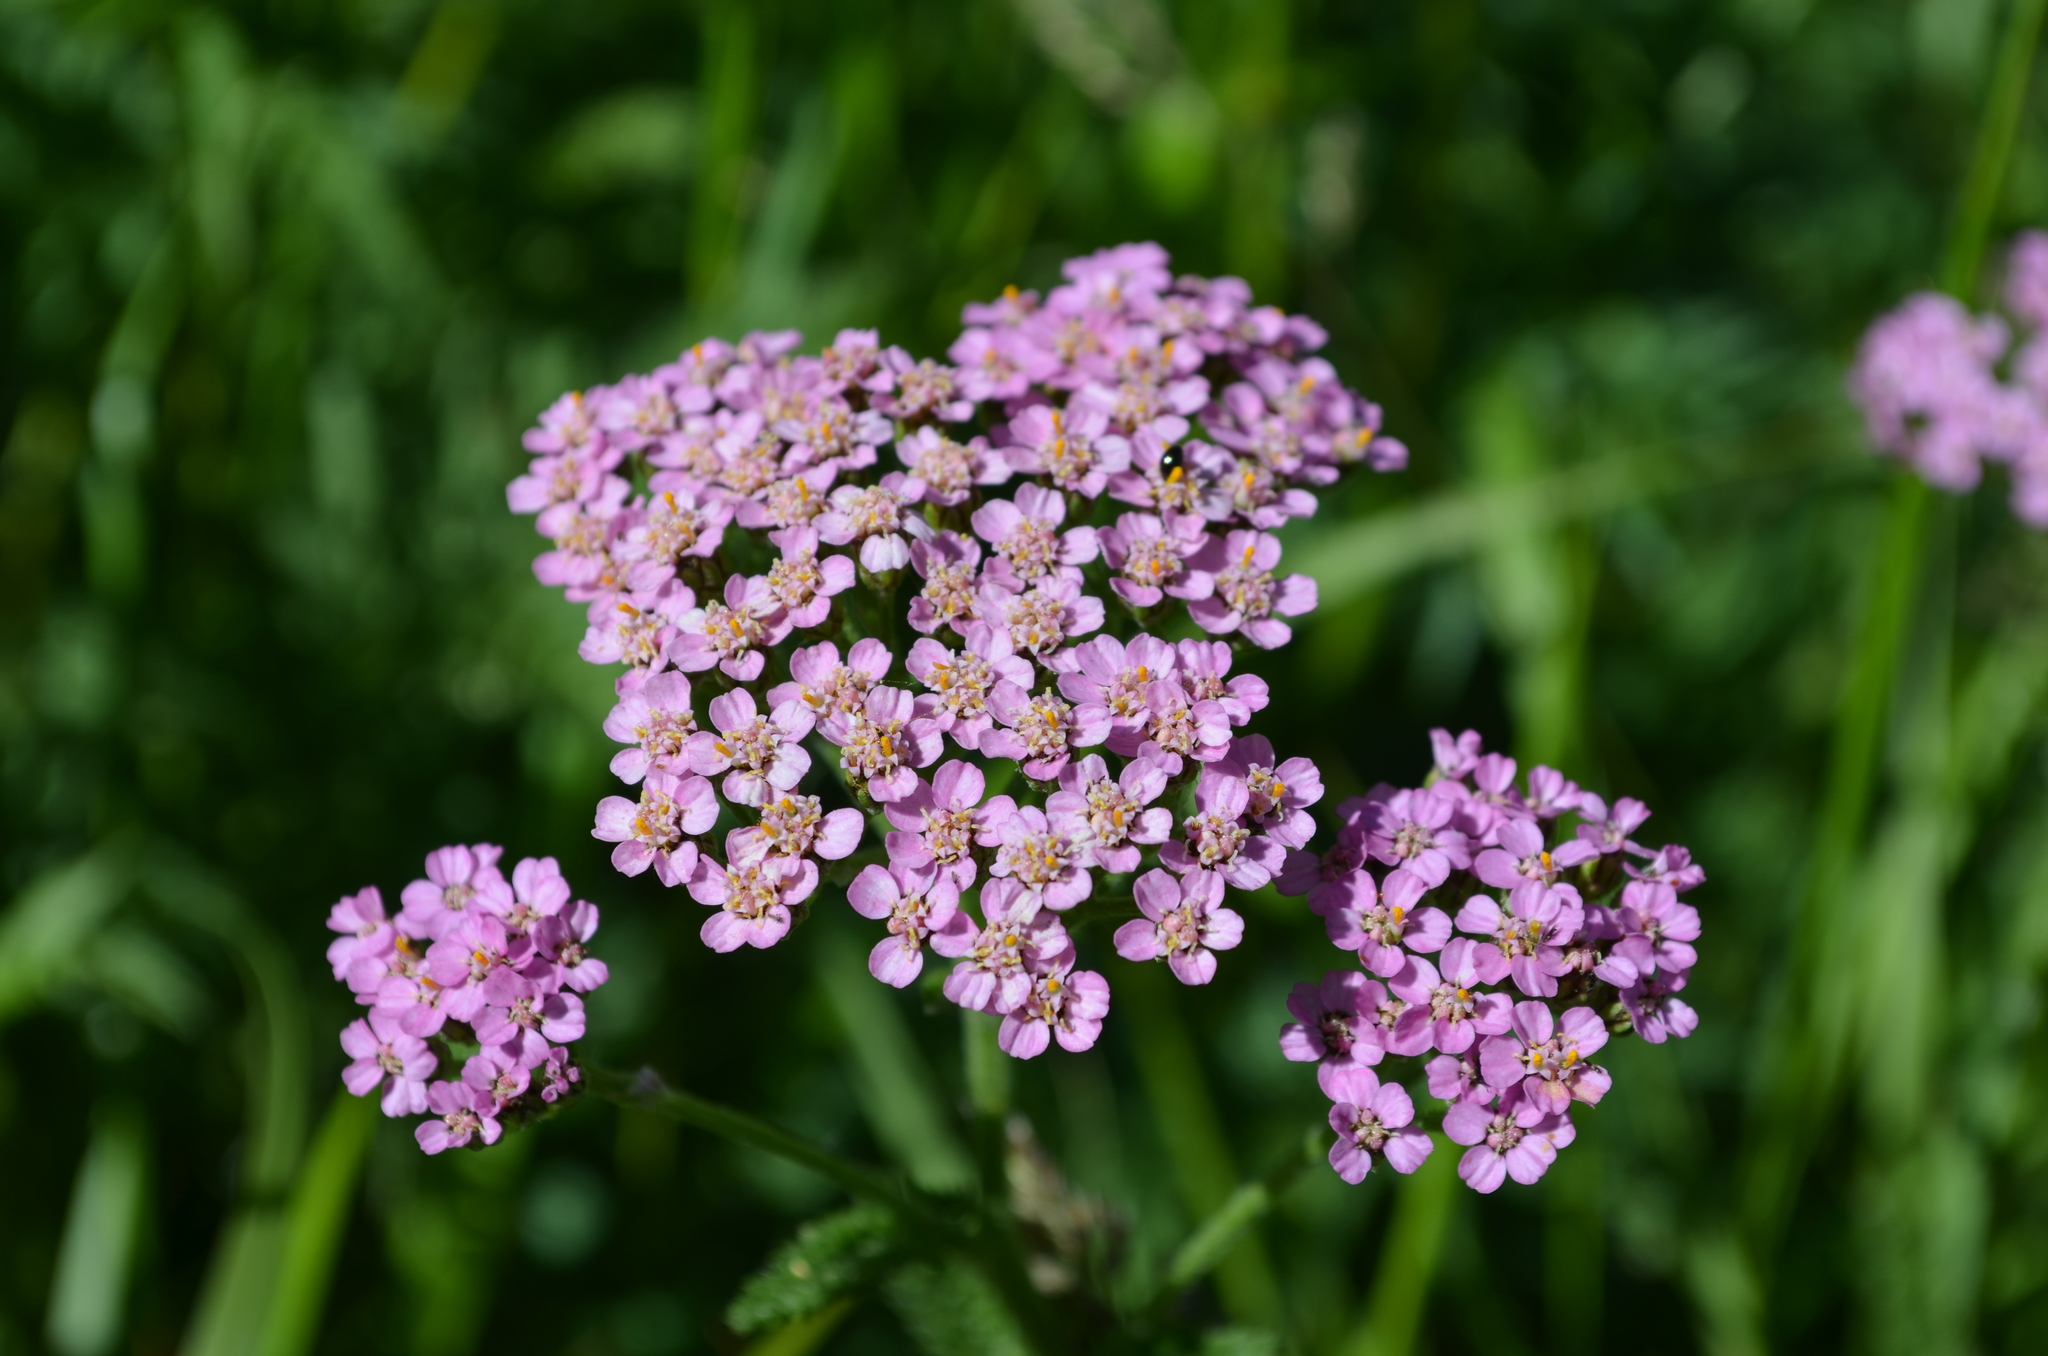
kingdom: Plantae
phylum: Tracheophyta
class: Magnoliopsida
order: Asterales
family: Asteraceae
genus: Achillea
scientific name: Achillea millefolium
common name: Yarrow
